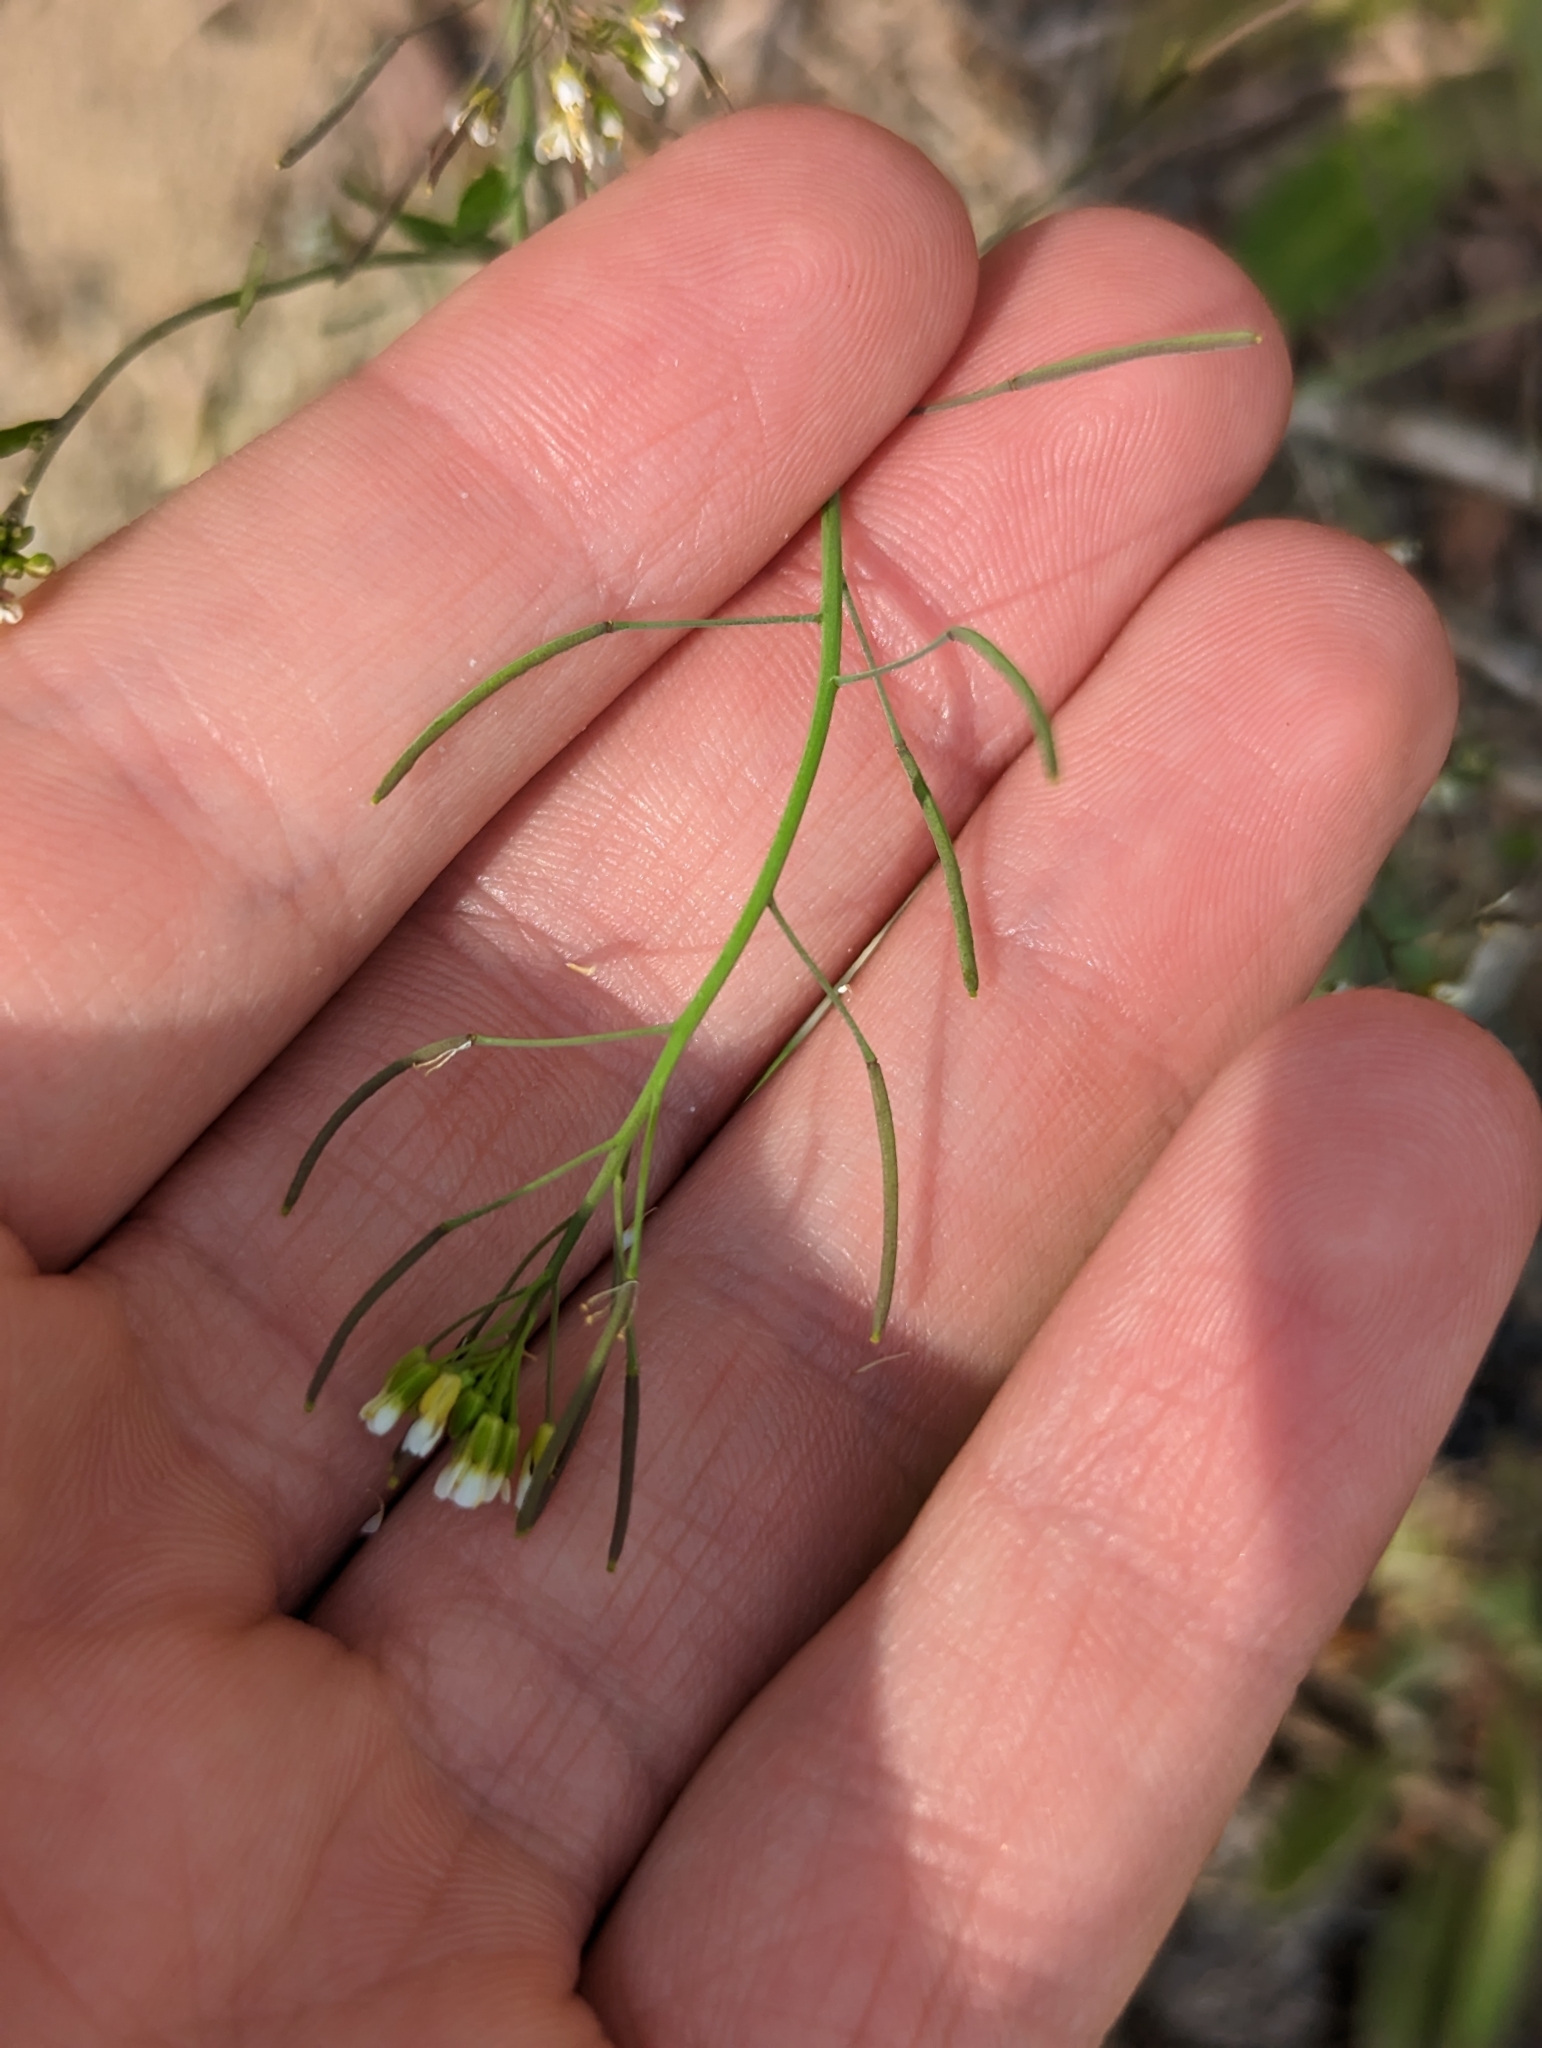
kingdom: Plantae
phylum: Tracheophyta
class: Magnoliopsida
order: Brassicales
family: Brassicaceae
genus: Arabidopsis
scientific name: Arabidopsis thaliana
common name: Thale cress
